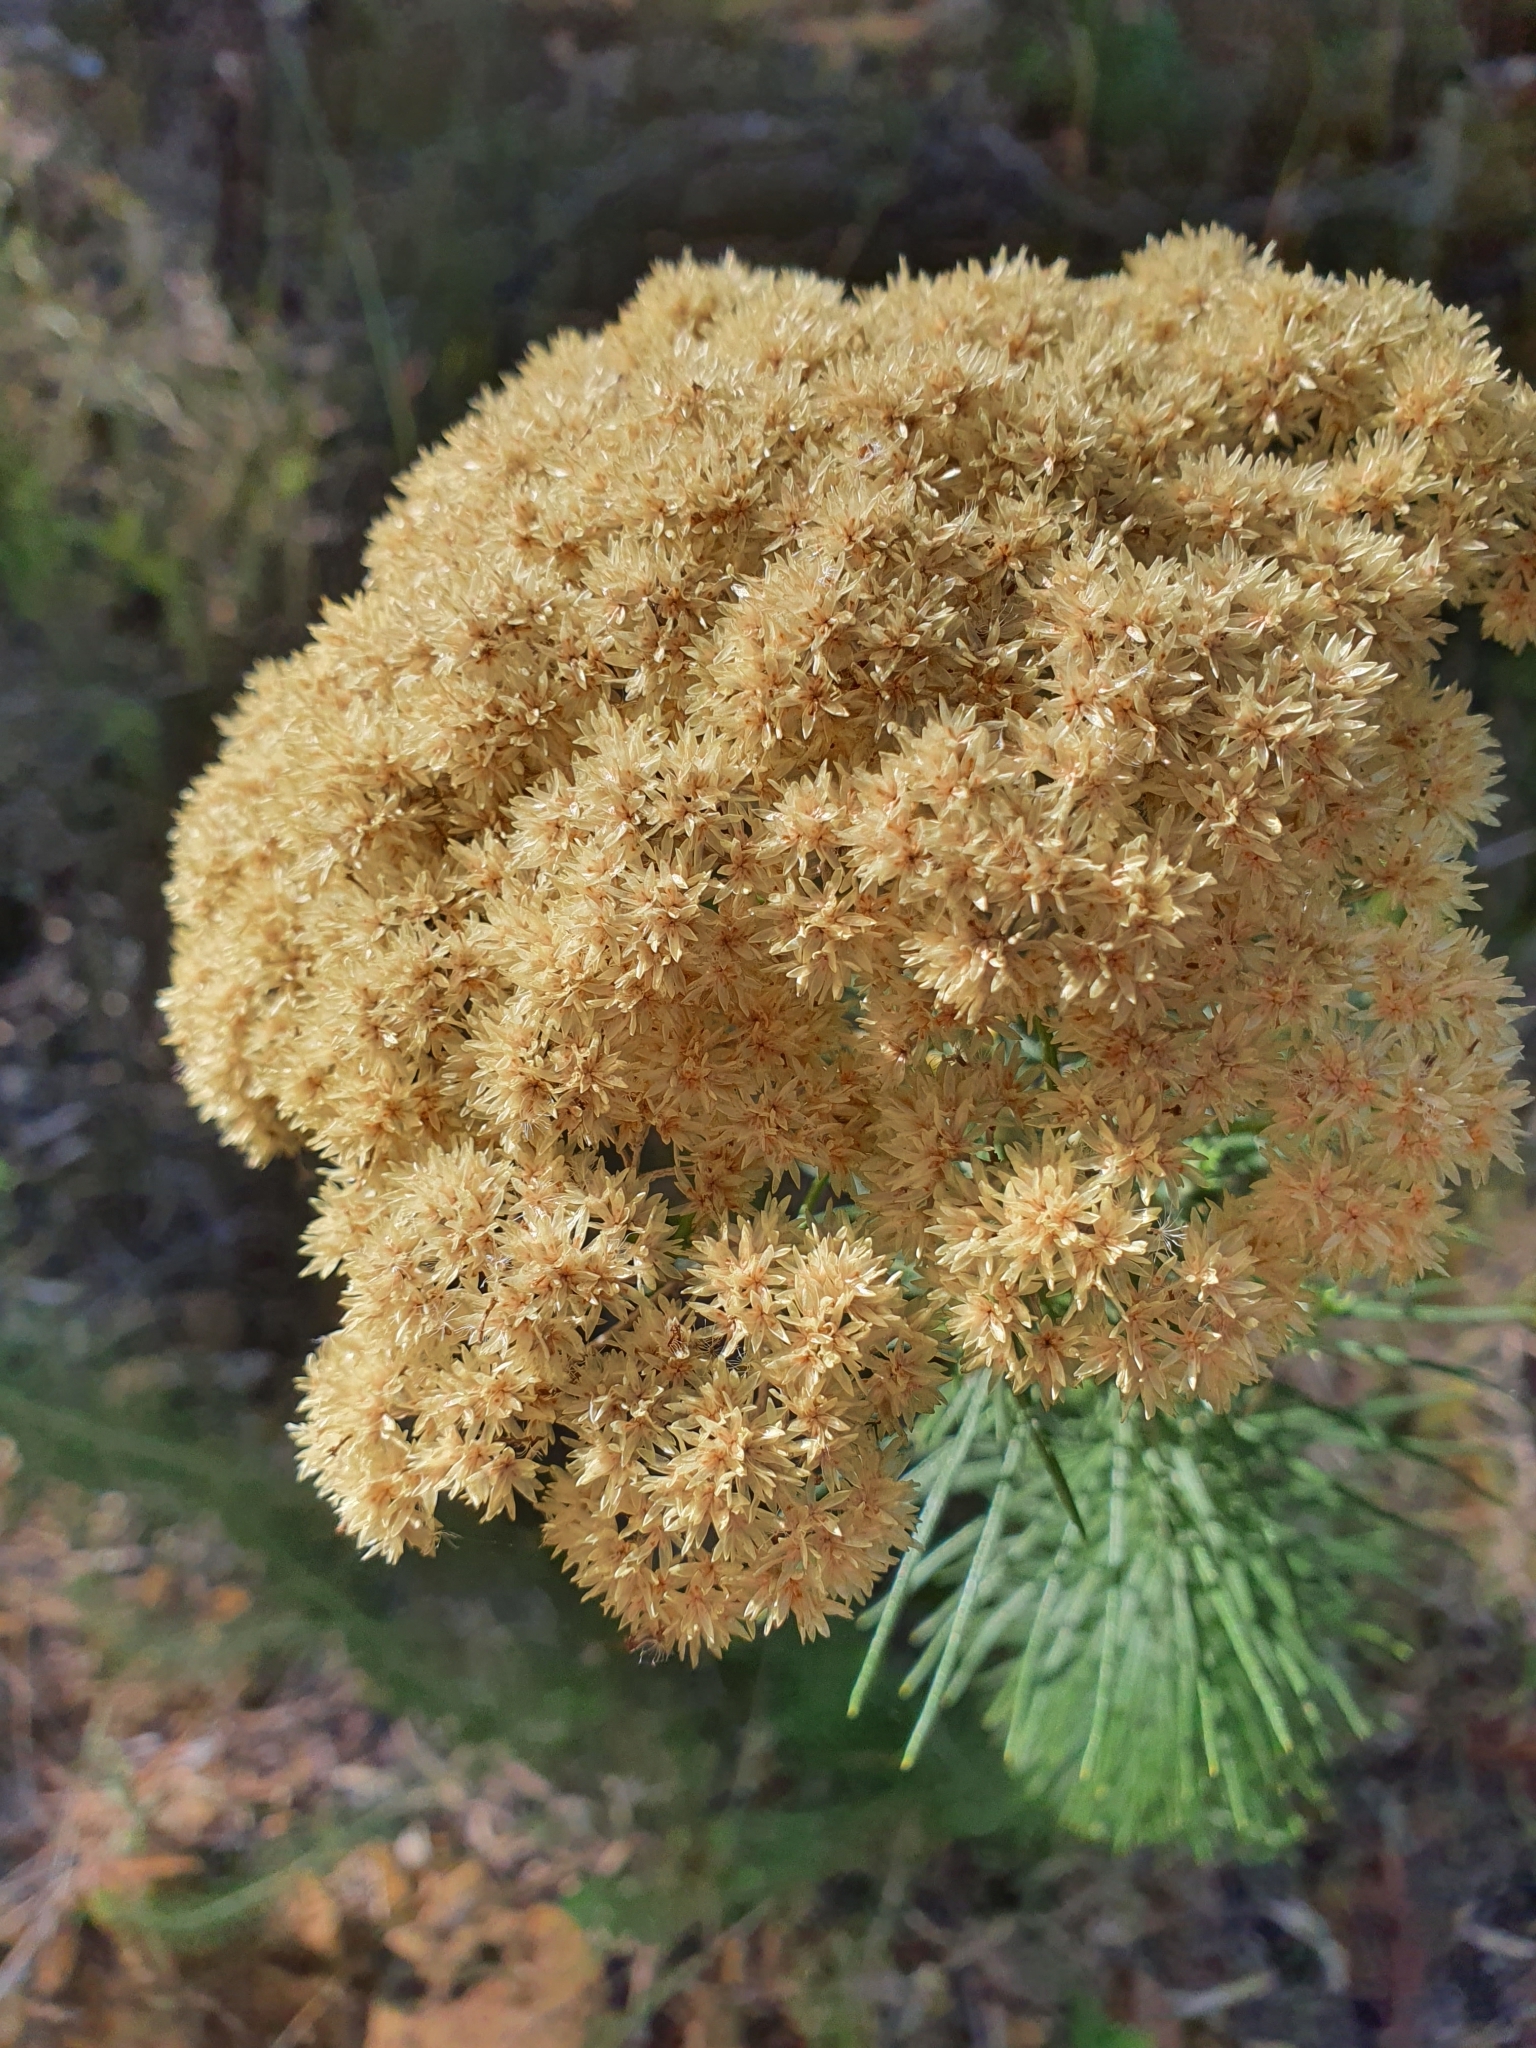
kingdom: Plantae
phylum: Tracheophyta
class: Magnoliopsida
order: Asterales
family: Asteraceae
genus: Ozothamnus
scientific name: Ozothamnus diosmifolius
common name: White-dogwood
